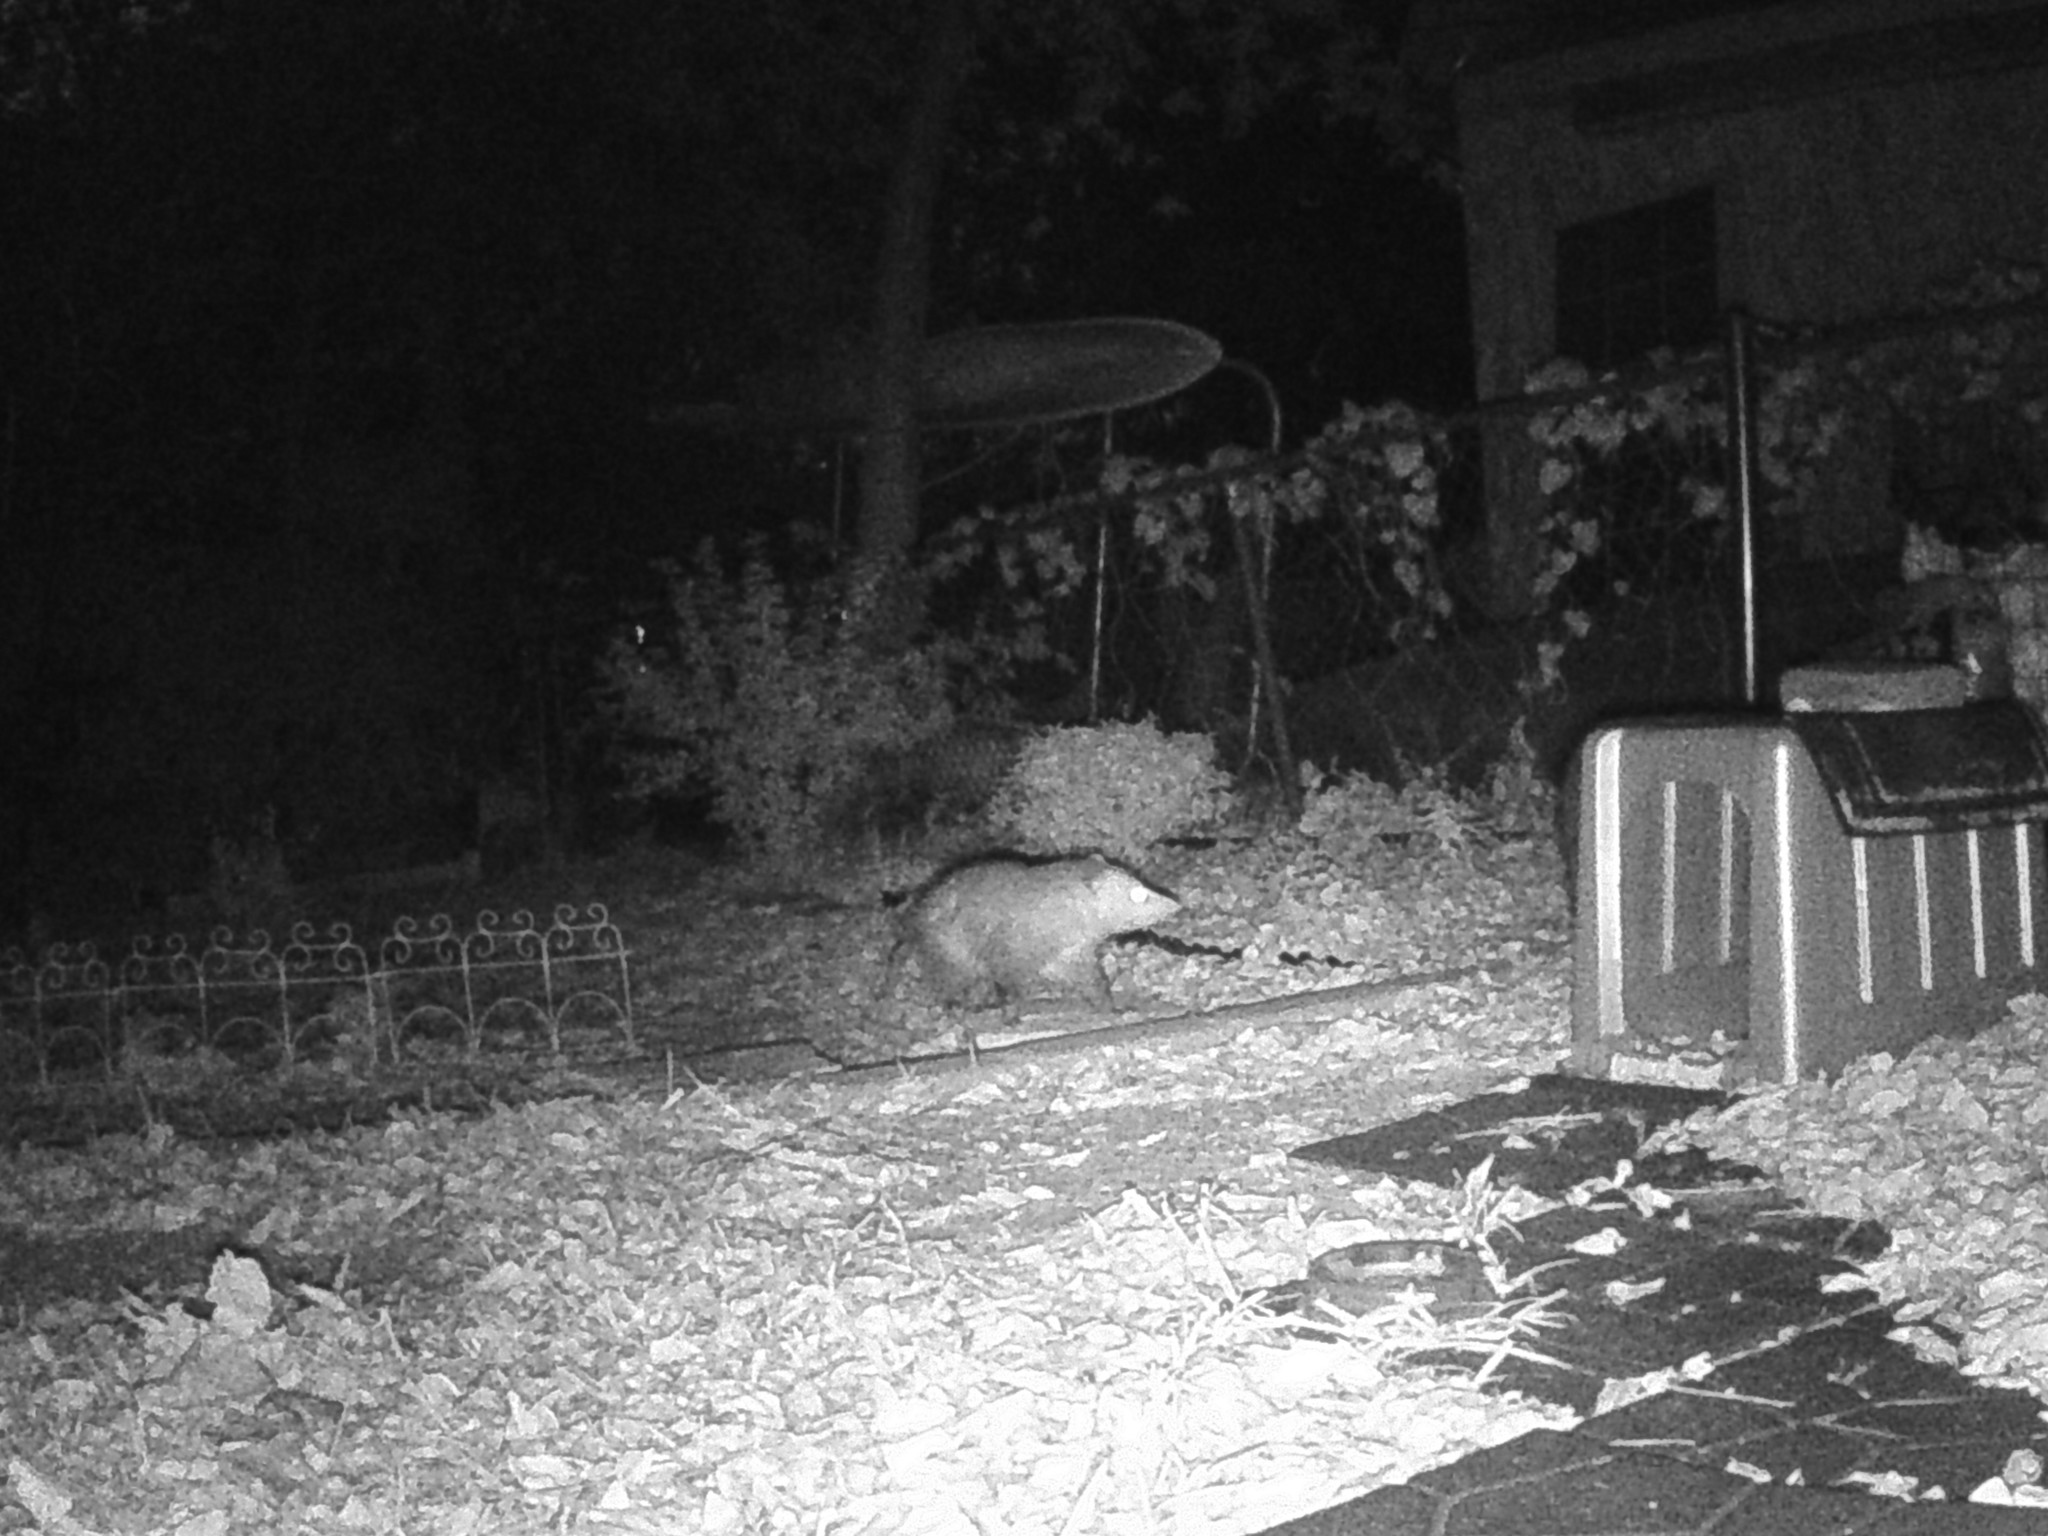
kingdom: Animalia
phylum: Chordata
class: Mammalia
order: Didelphimorphia
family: Didelphidae
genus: Didelphis
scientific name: Didelphis virginiana
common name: Virginia opossum
